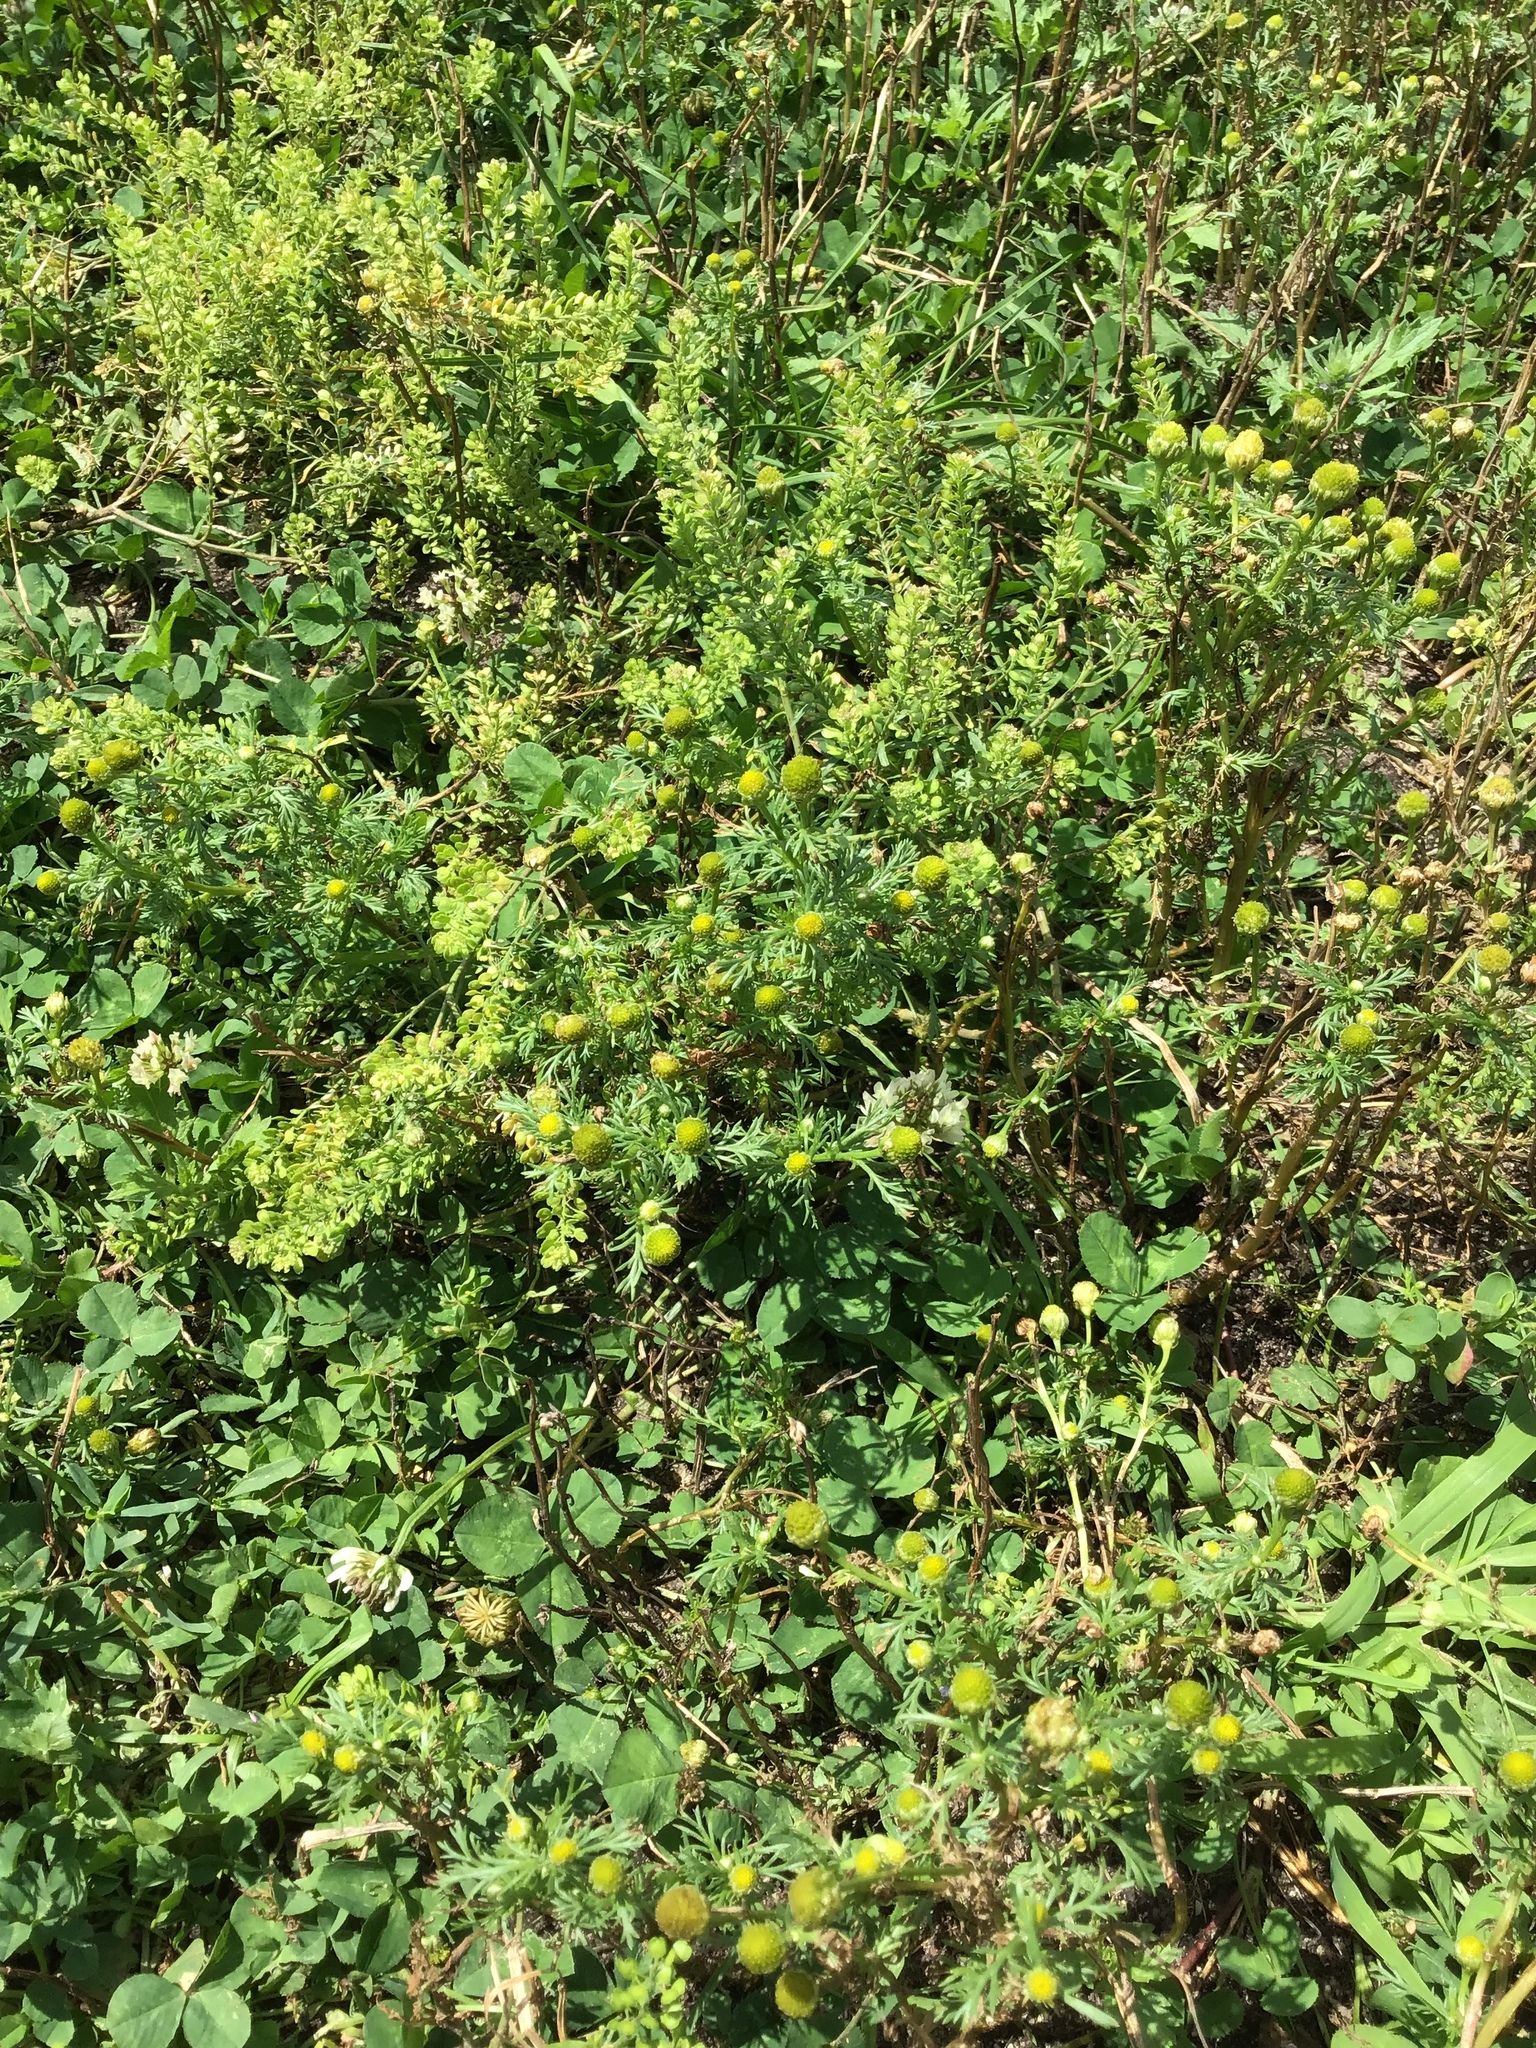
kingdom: Plantae
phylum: Tracheophyta
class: Magnoliopsida
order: Asterales
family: Asteraceae
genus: Matricaria
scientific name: Matricaria discoidea
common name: Disc mayweed
